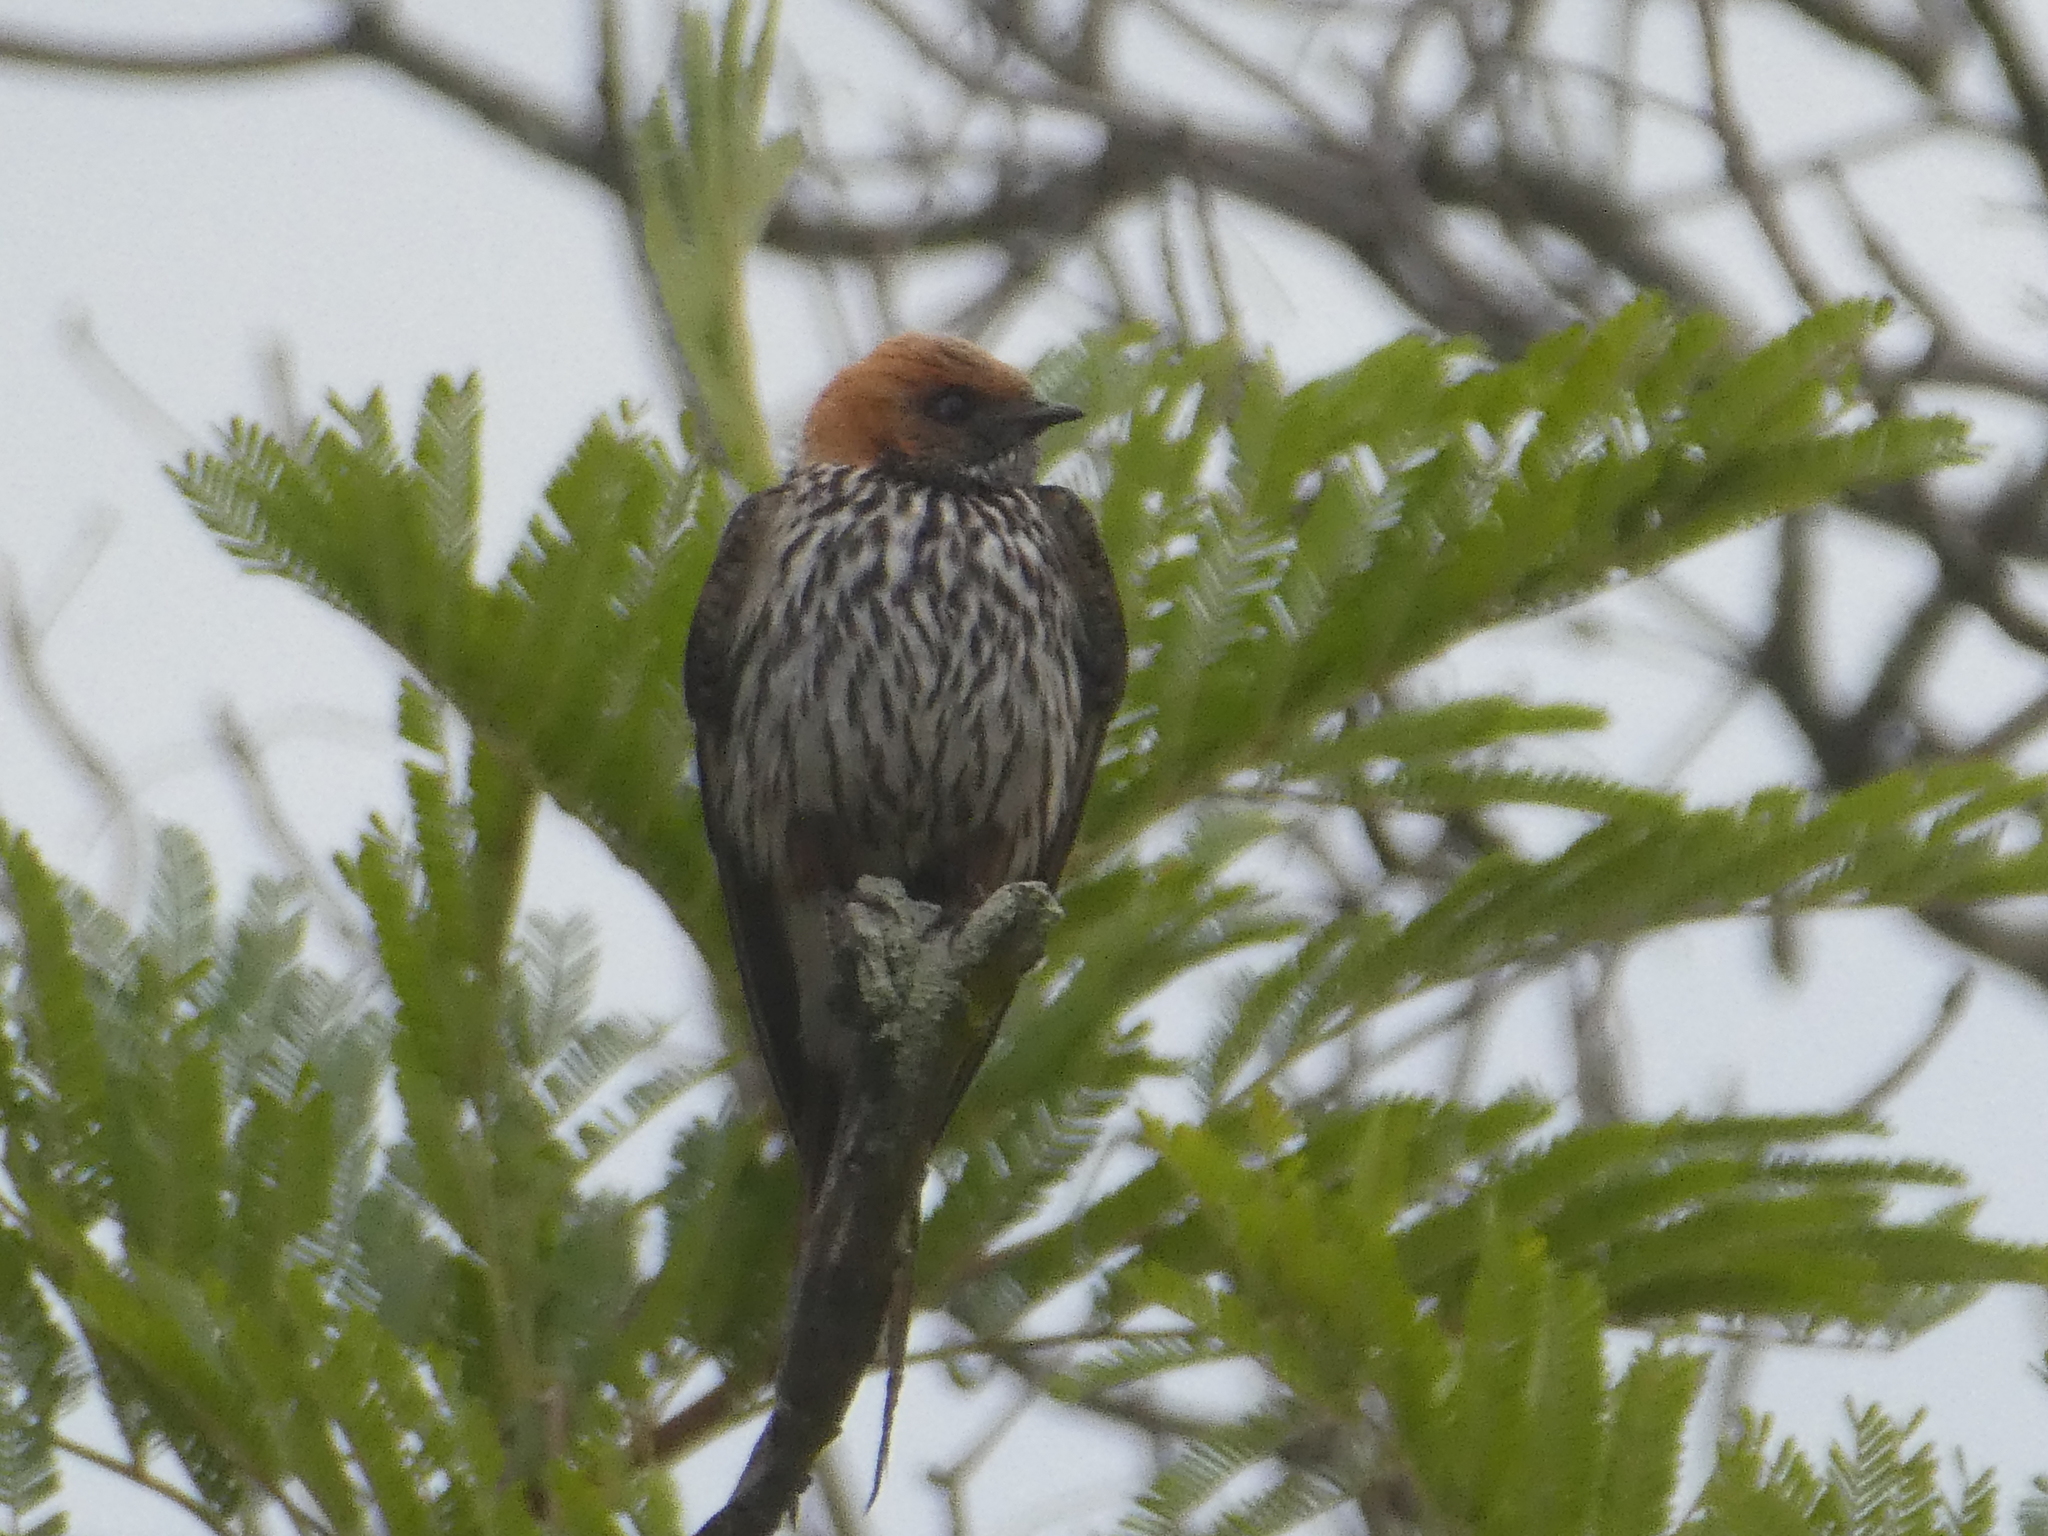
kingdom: Animalia
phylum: Chordata
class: Aves
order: Passeriformes
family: Hirundinidae
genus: Cecropis
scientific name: Cecropis abyssinica
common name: Lesser striped-swallow
